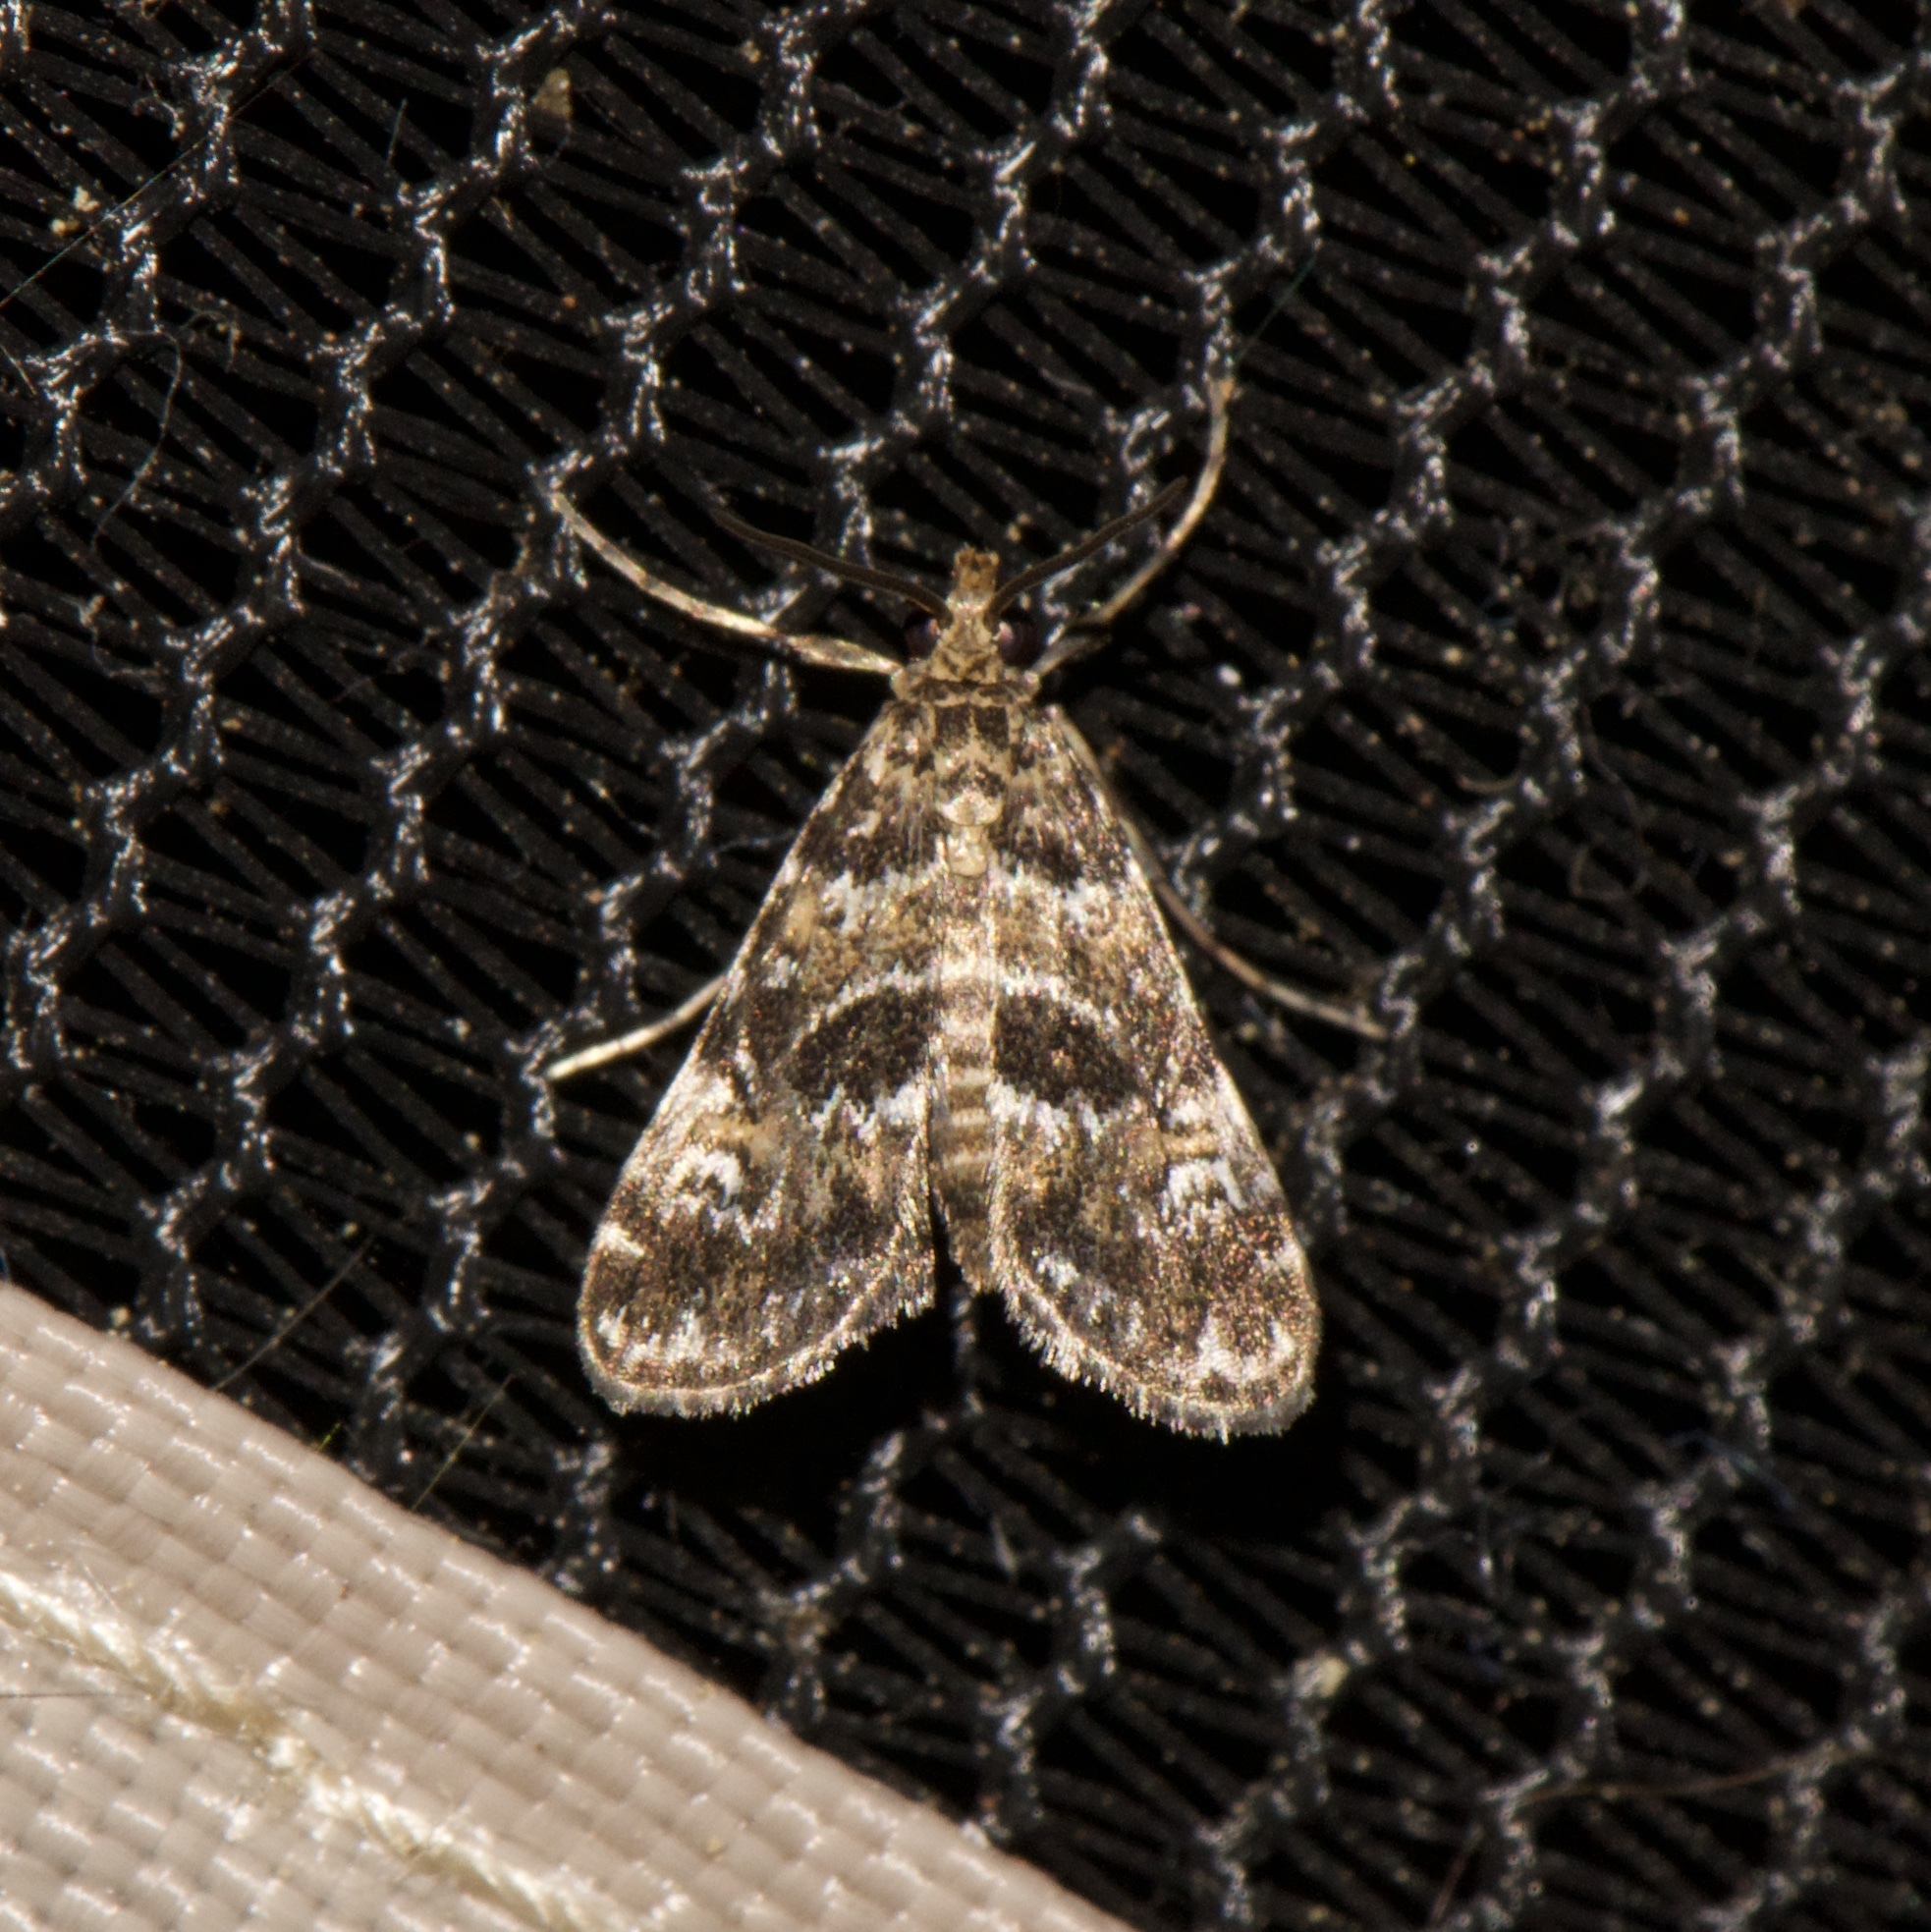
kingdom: Animalia
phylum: Arthropoda
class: Insecta
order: Lepidoptera
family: Crambidae
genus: Elophila
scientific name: Elophila obliteralis
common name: Waterlily leafcutter moth
